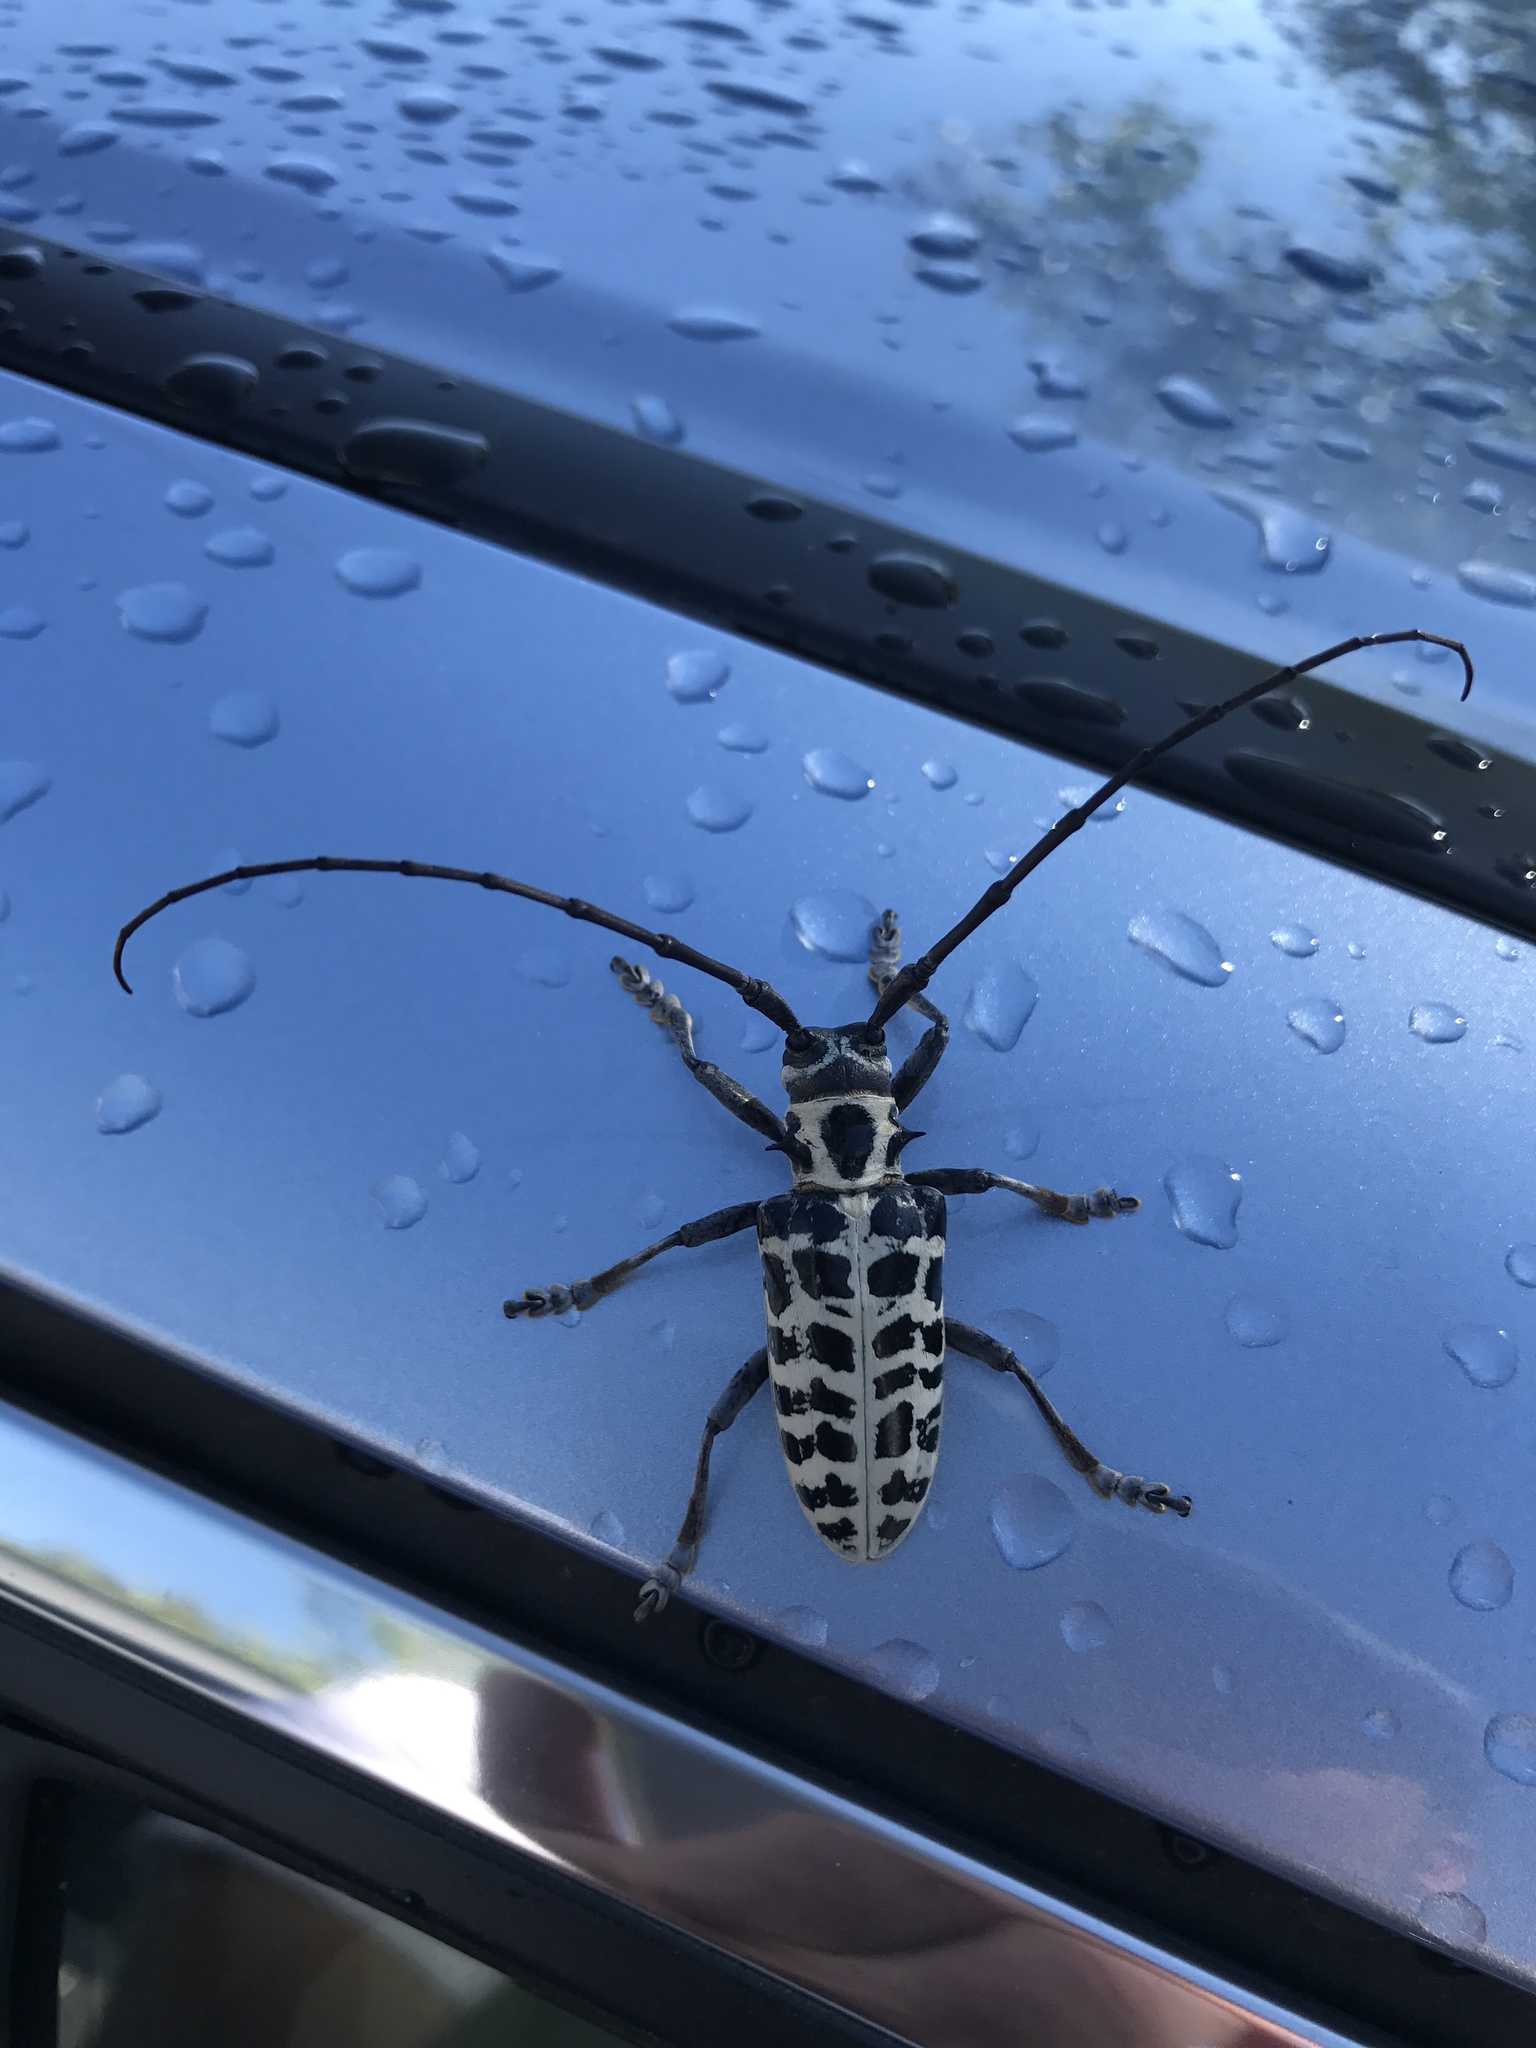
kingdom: Animalia
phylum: Arthropoda
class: Insecta
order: Coleoptera
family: Cerambycidae
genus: Plectrodera
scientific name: Plectrodera scalator
